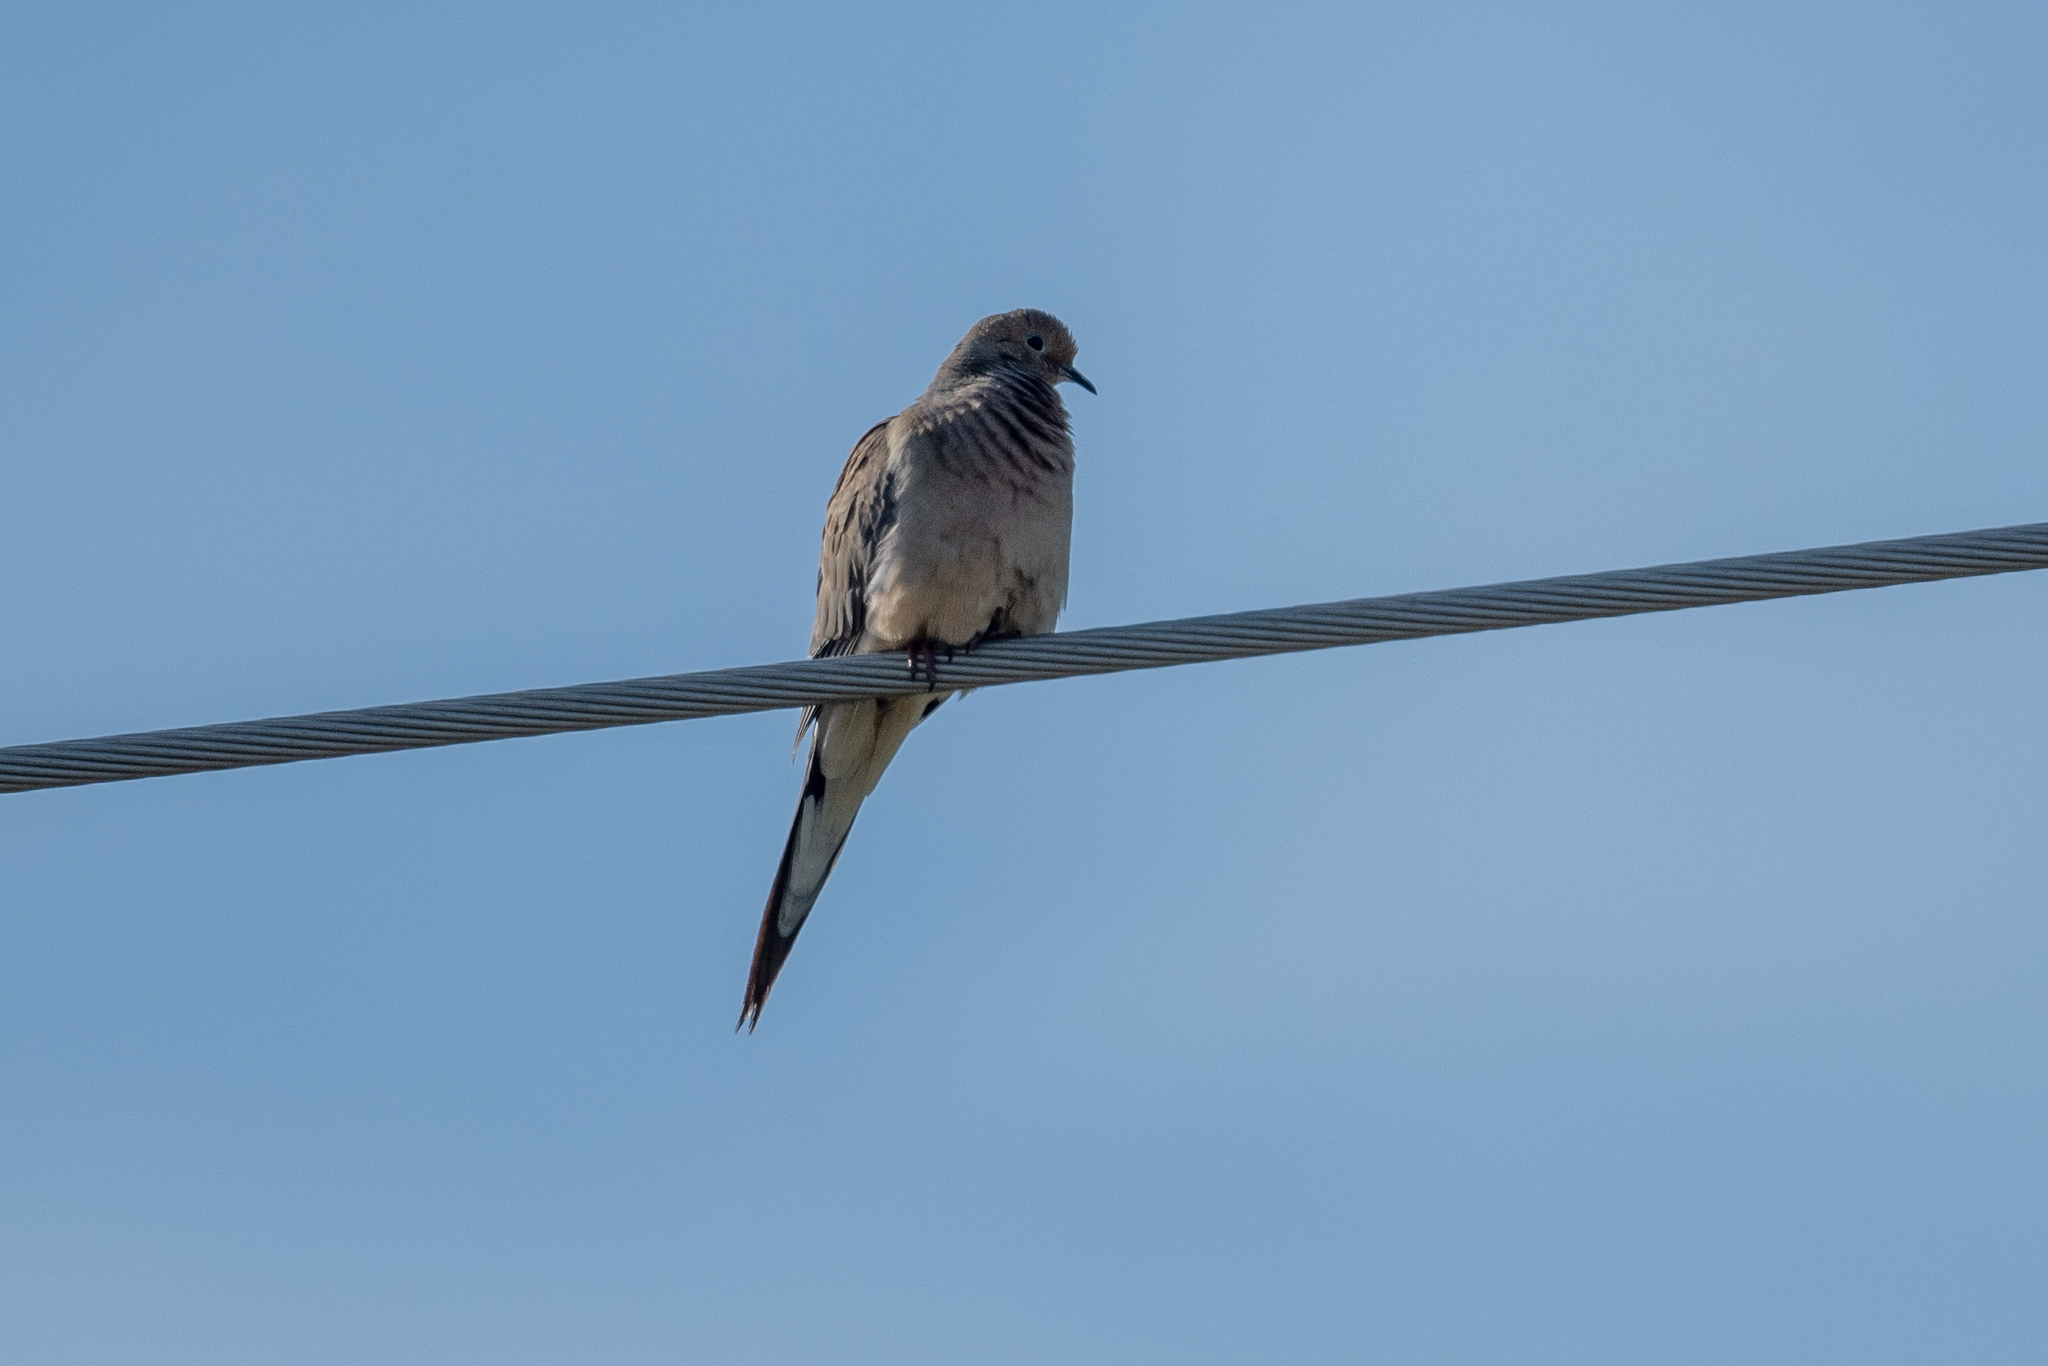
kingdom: Animalia
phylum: Chordata
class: Aves
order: Columbiformes
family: Columbidae
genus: Zenaida
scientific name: Zenaida macroura
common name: Mourning dove
